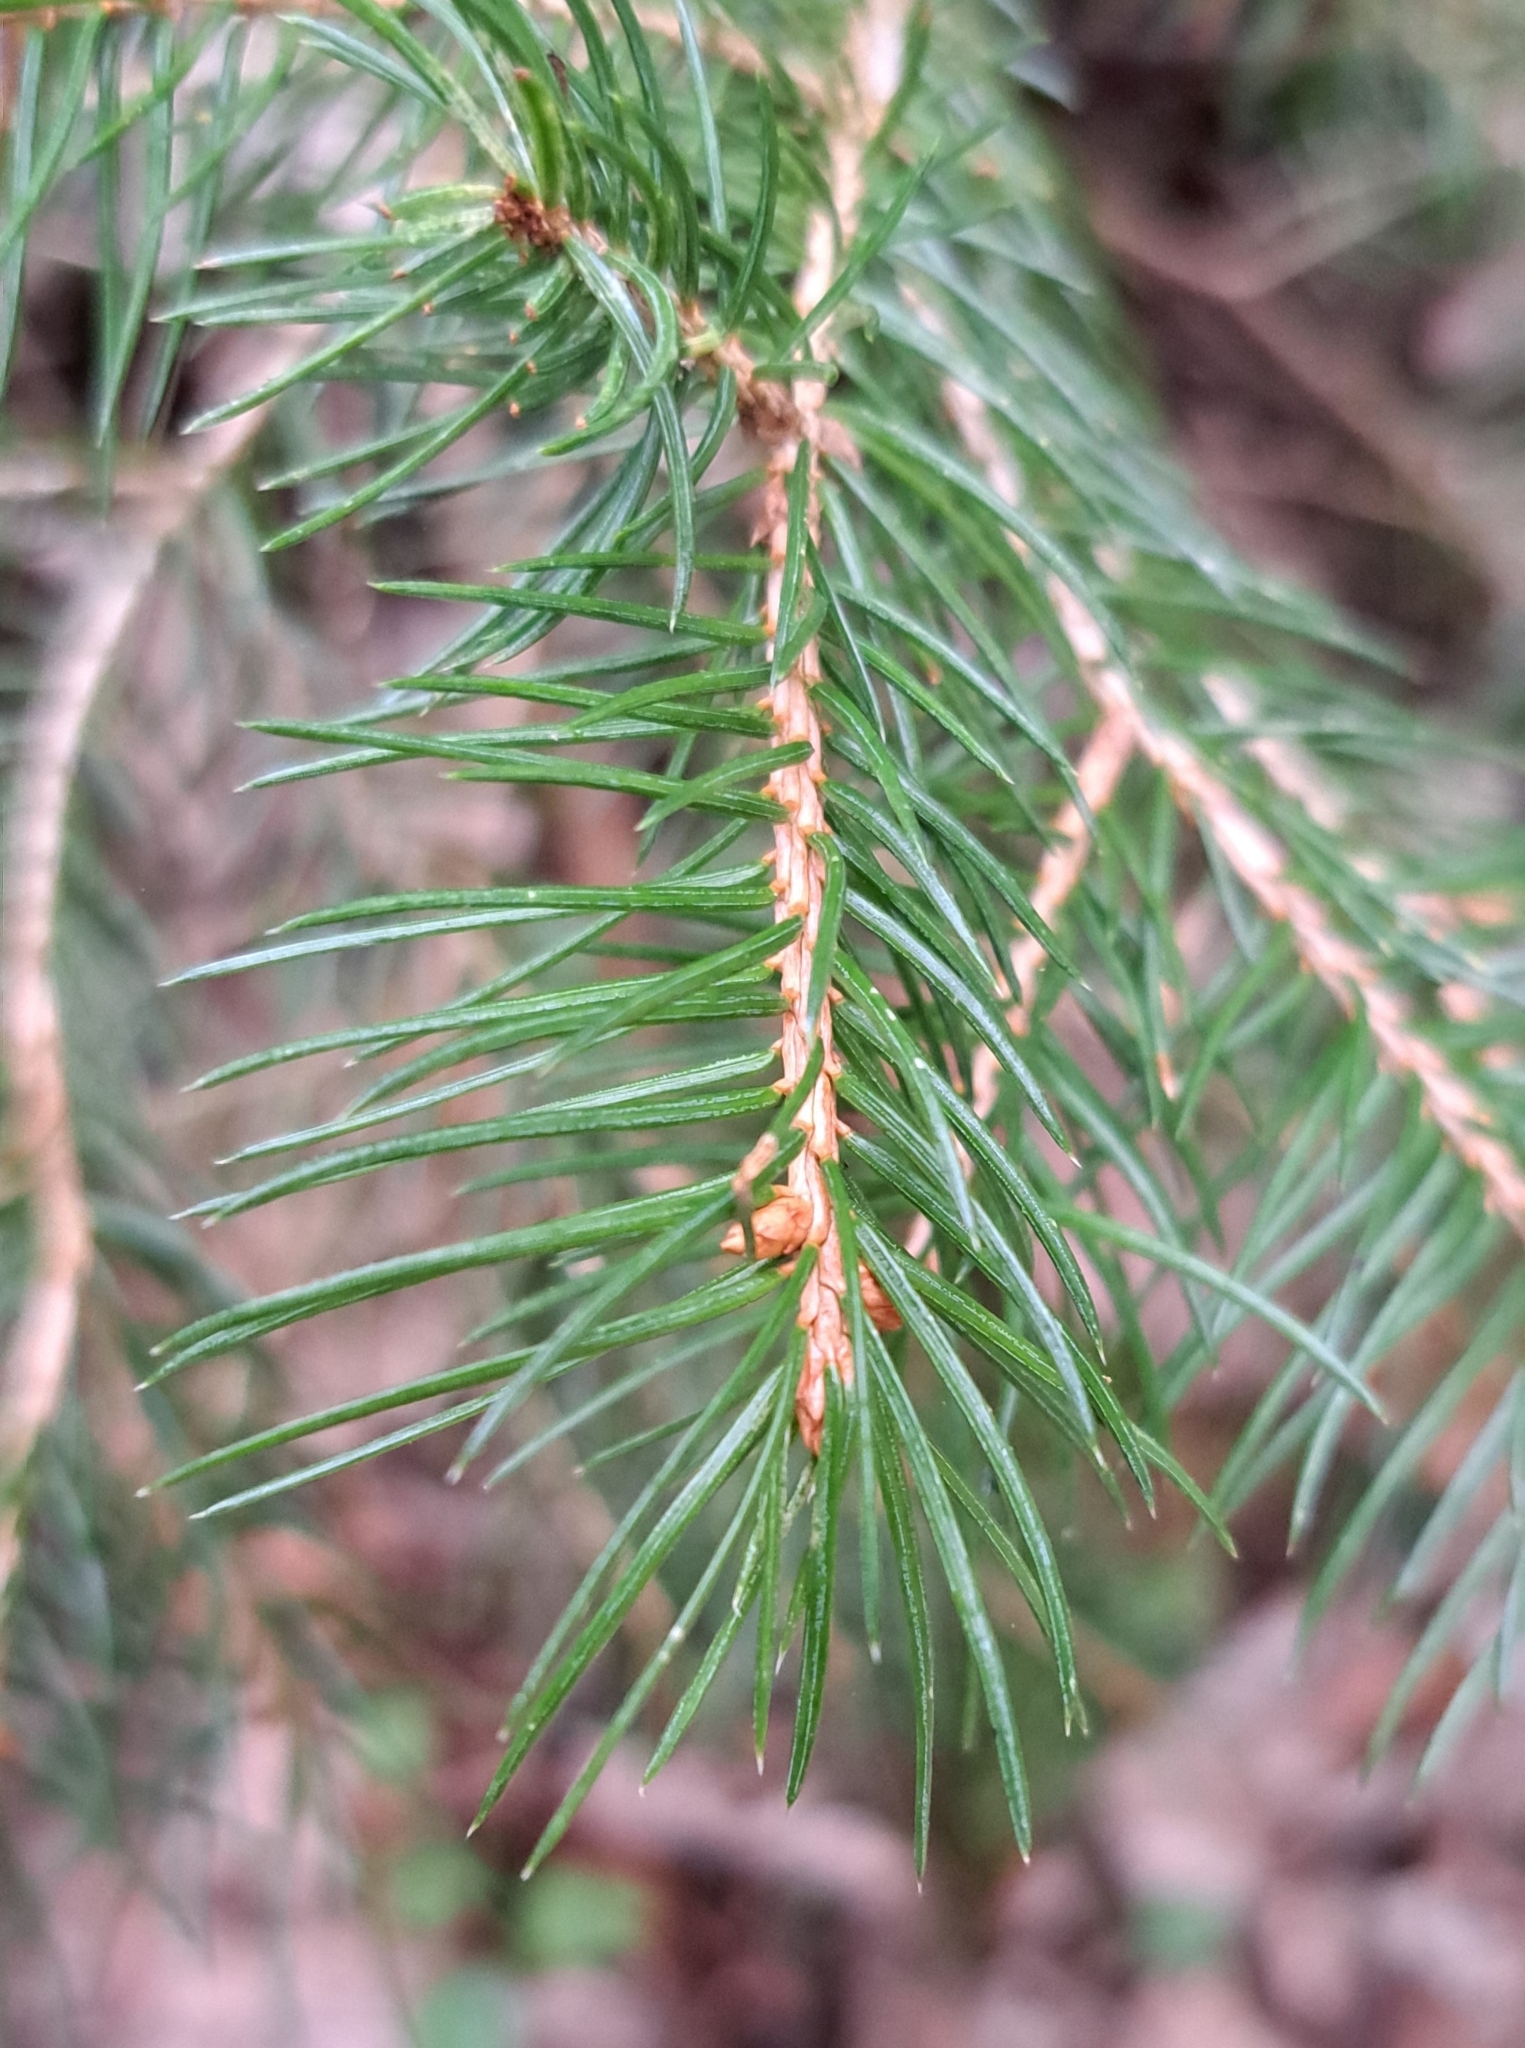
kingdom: Plantae
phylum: Tracheophyta
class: Pinopsida
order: Pinales
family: Pinaceae
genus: Picea
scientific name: Picea abies
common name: Norway spruce
